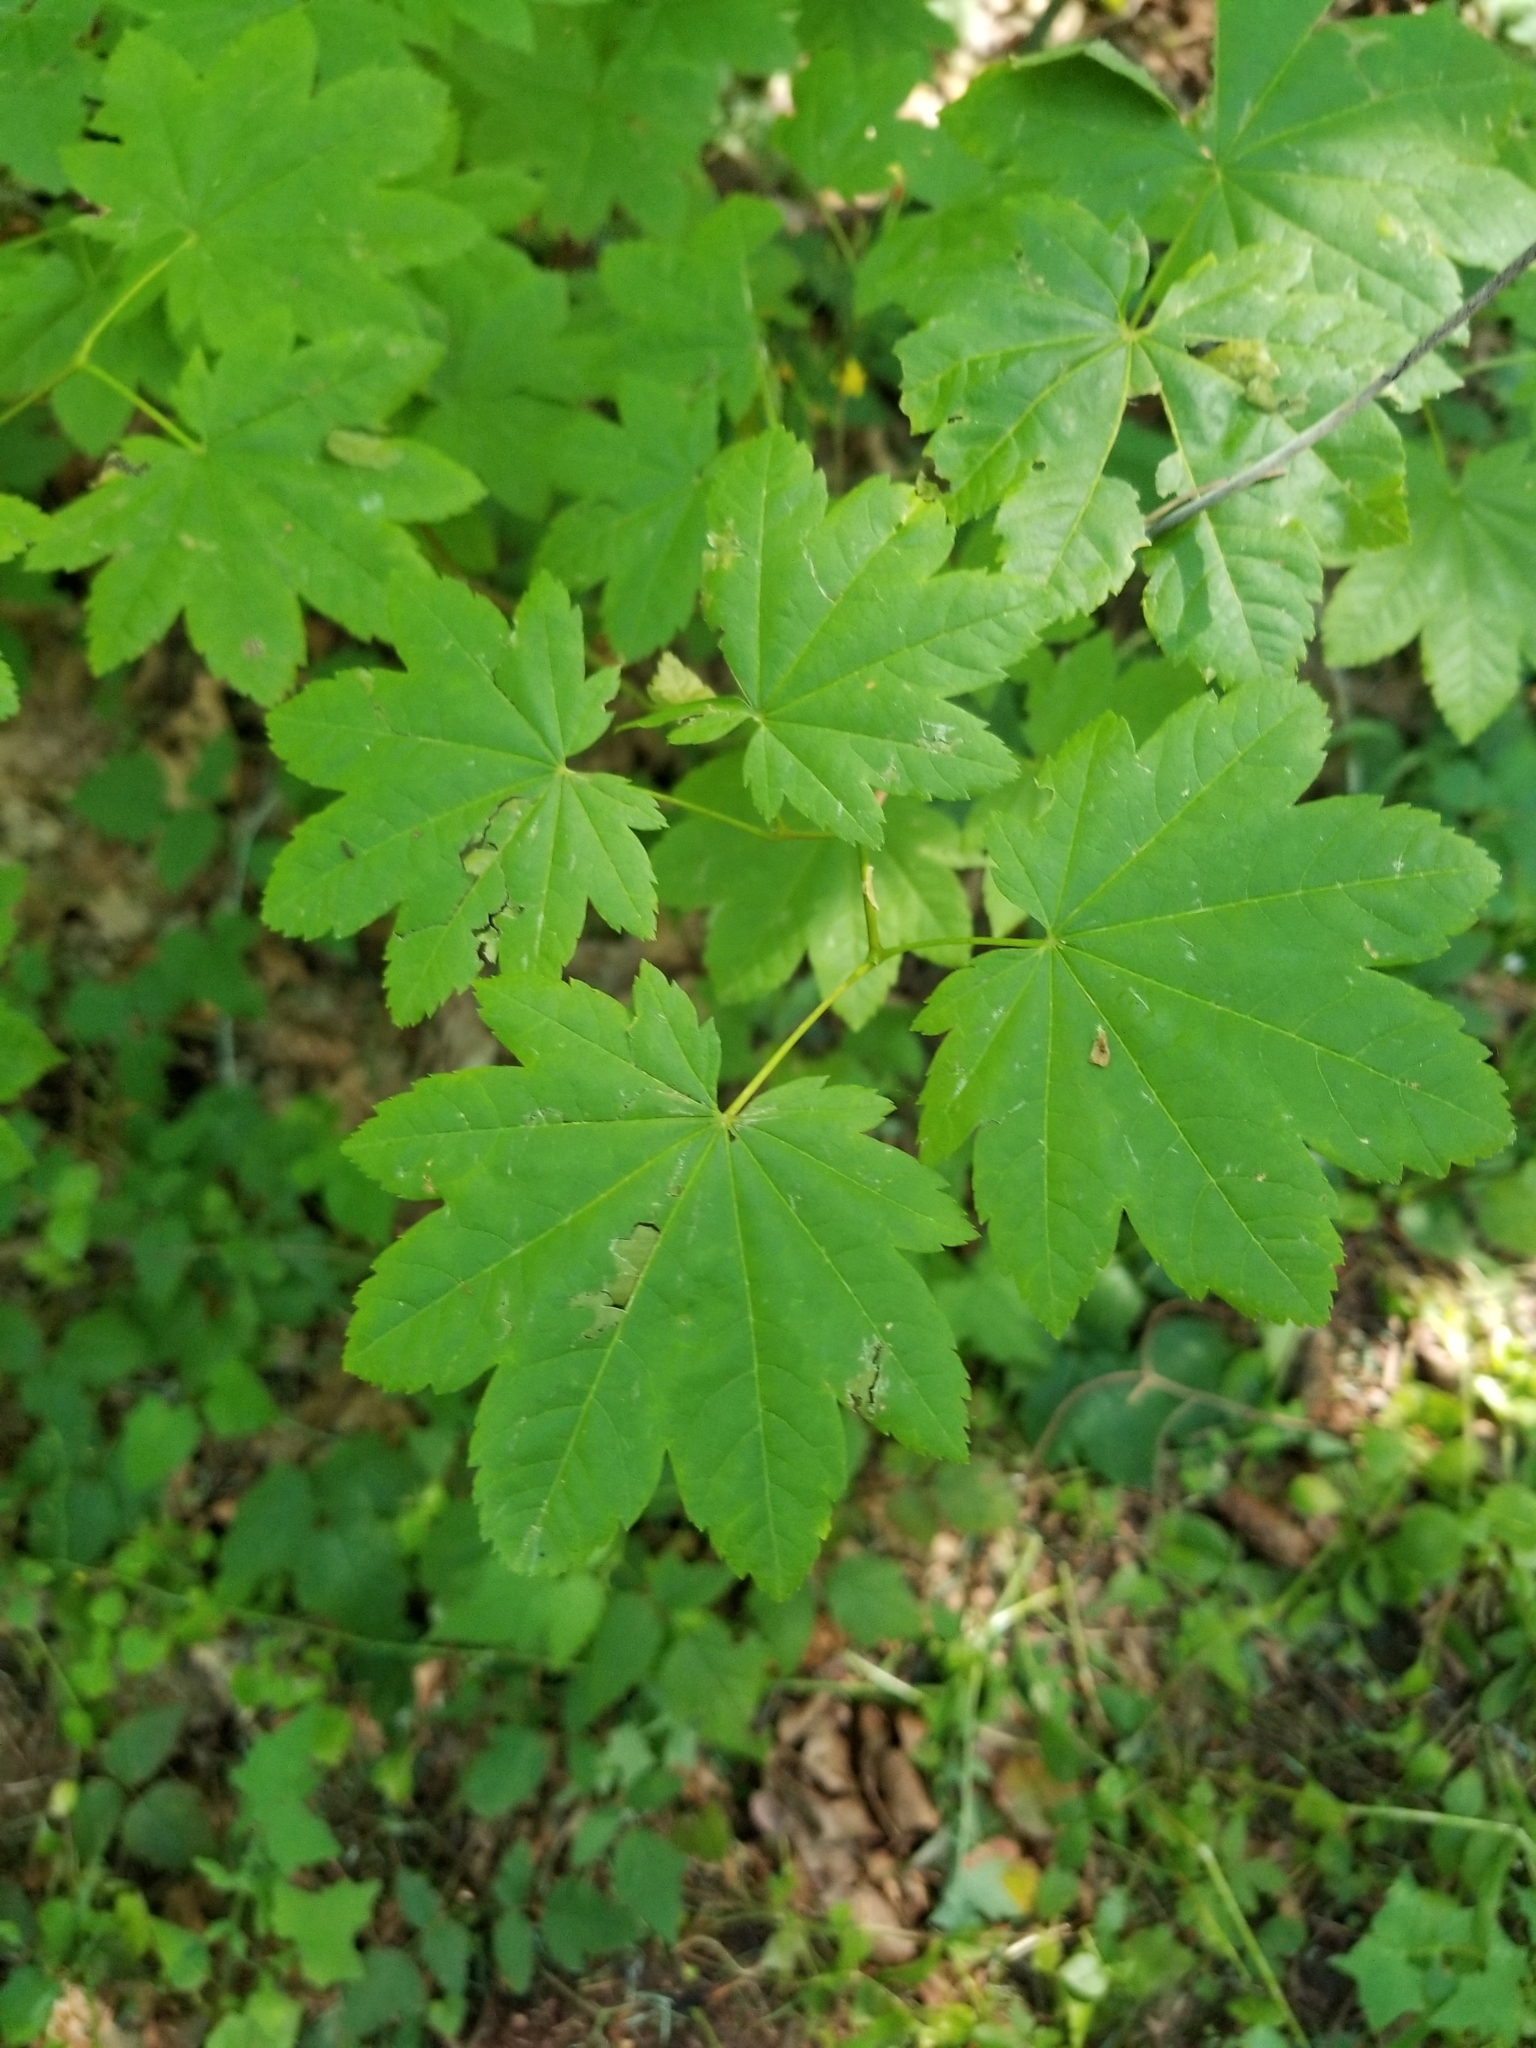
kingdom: Plantae
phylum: Tracheophyta
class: Magnoliopsida
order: Sapindales
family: Sapindaceae
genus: Acer
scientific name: Acer circinatum
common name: Vine maple
